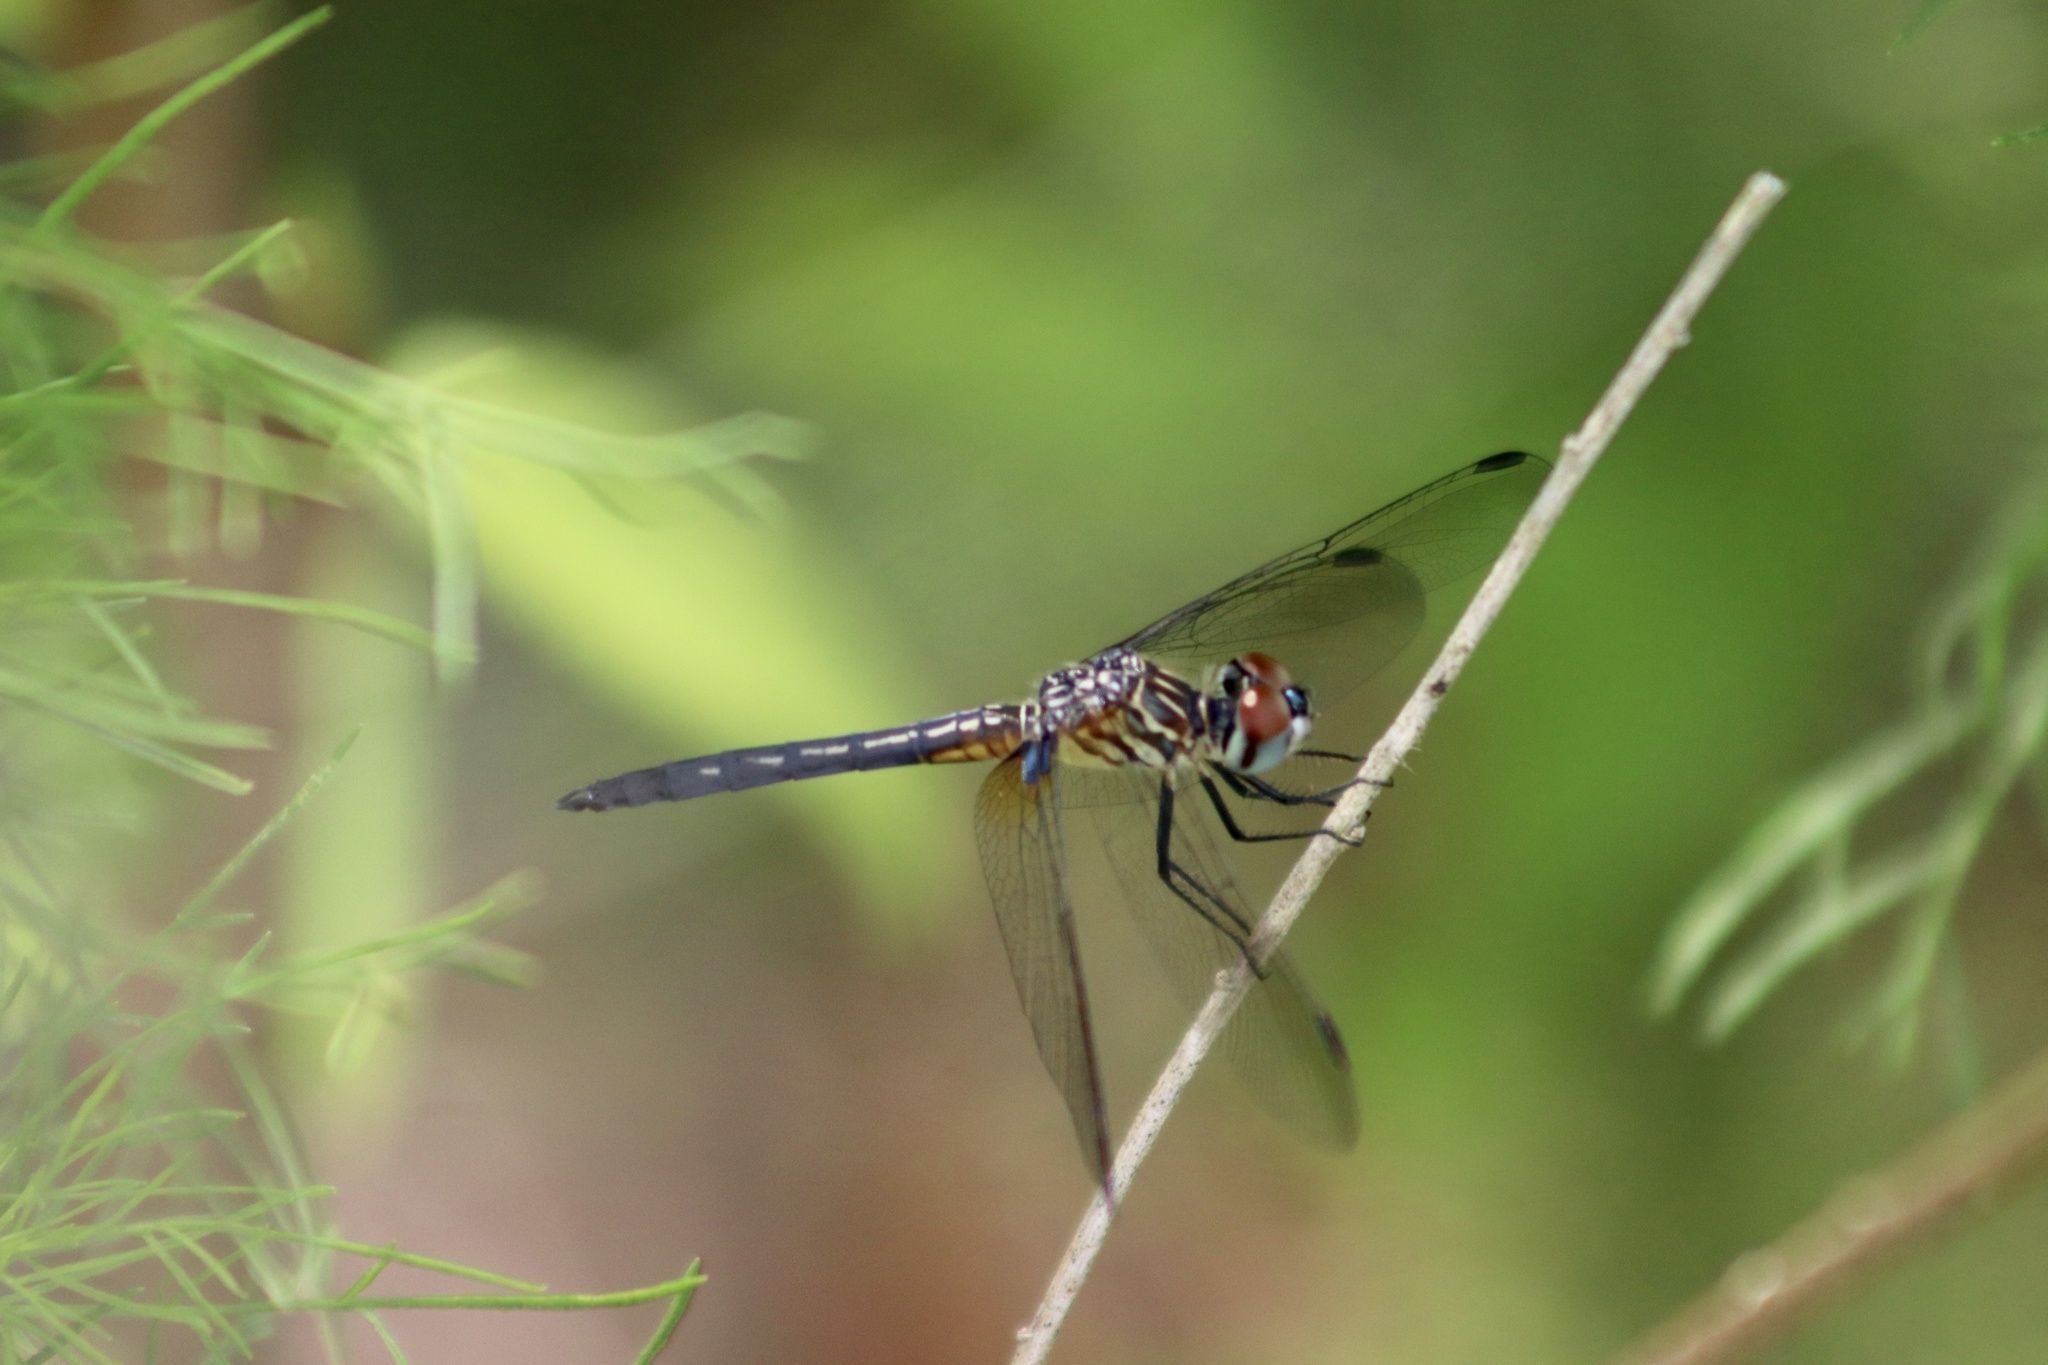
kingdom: Animalia
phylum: Arthropoda
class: Insecta
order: Odonata
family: Libellulidae
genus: Pachydiplax
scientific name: Pachydiplax longipennis
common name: Blue dasher
